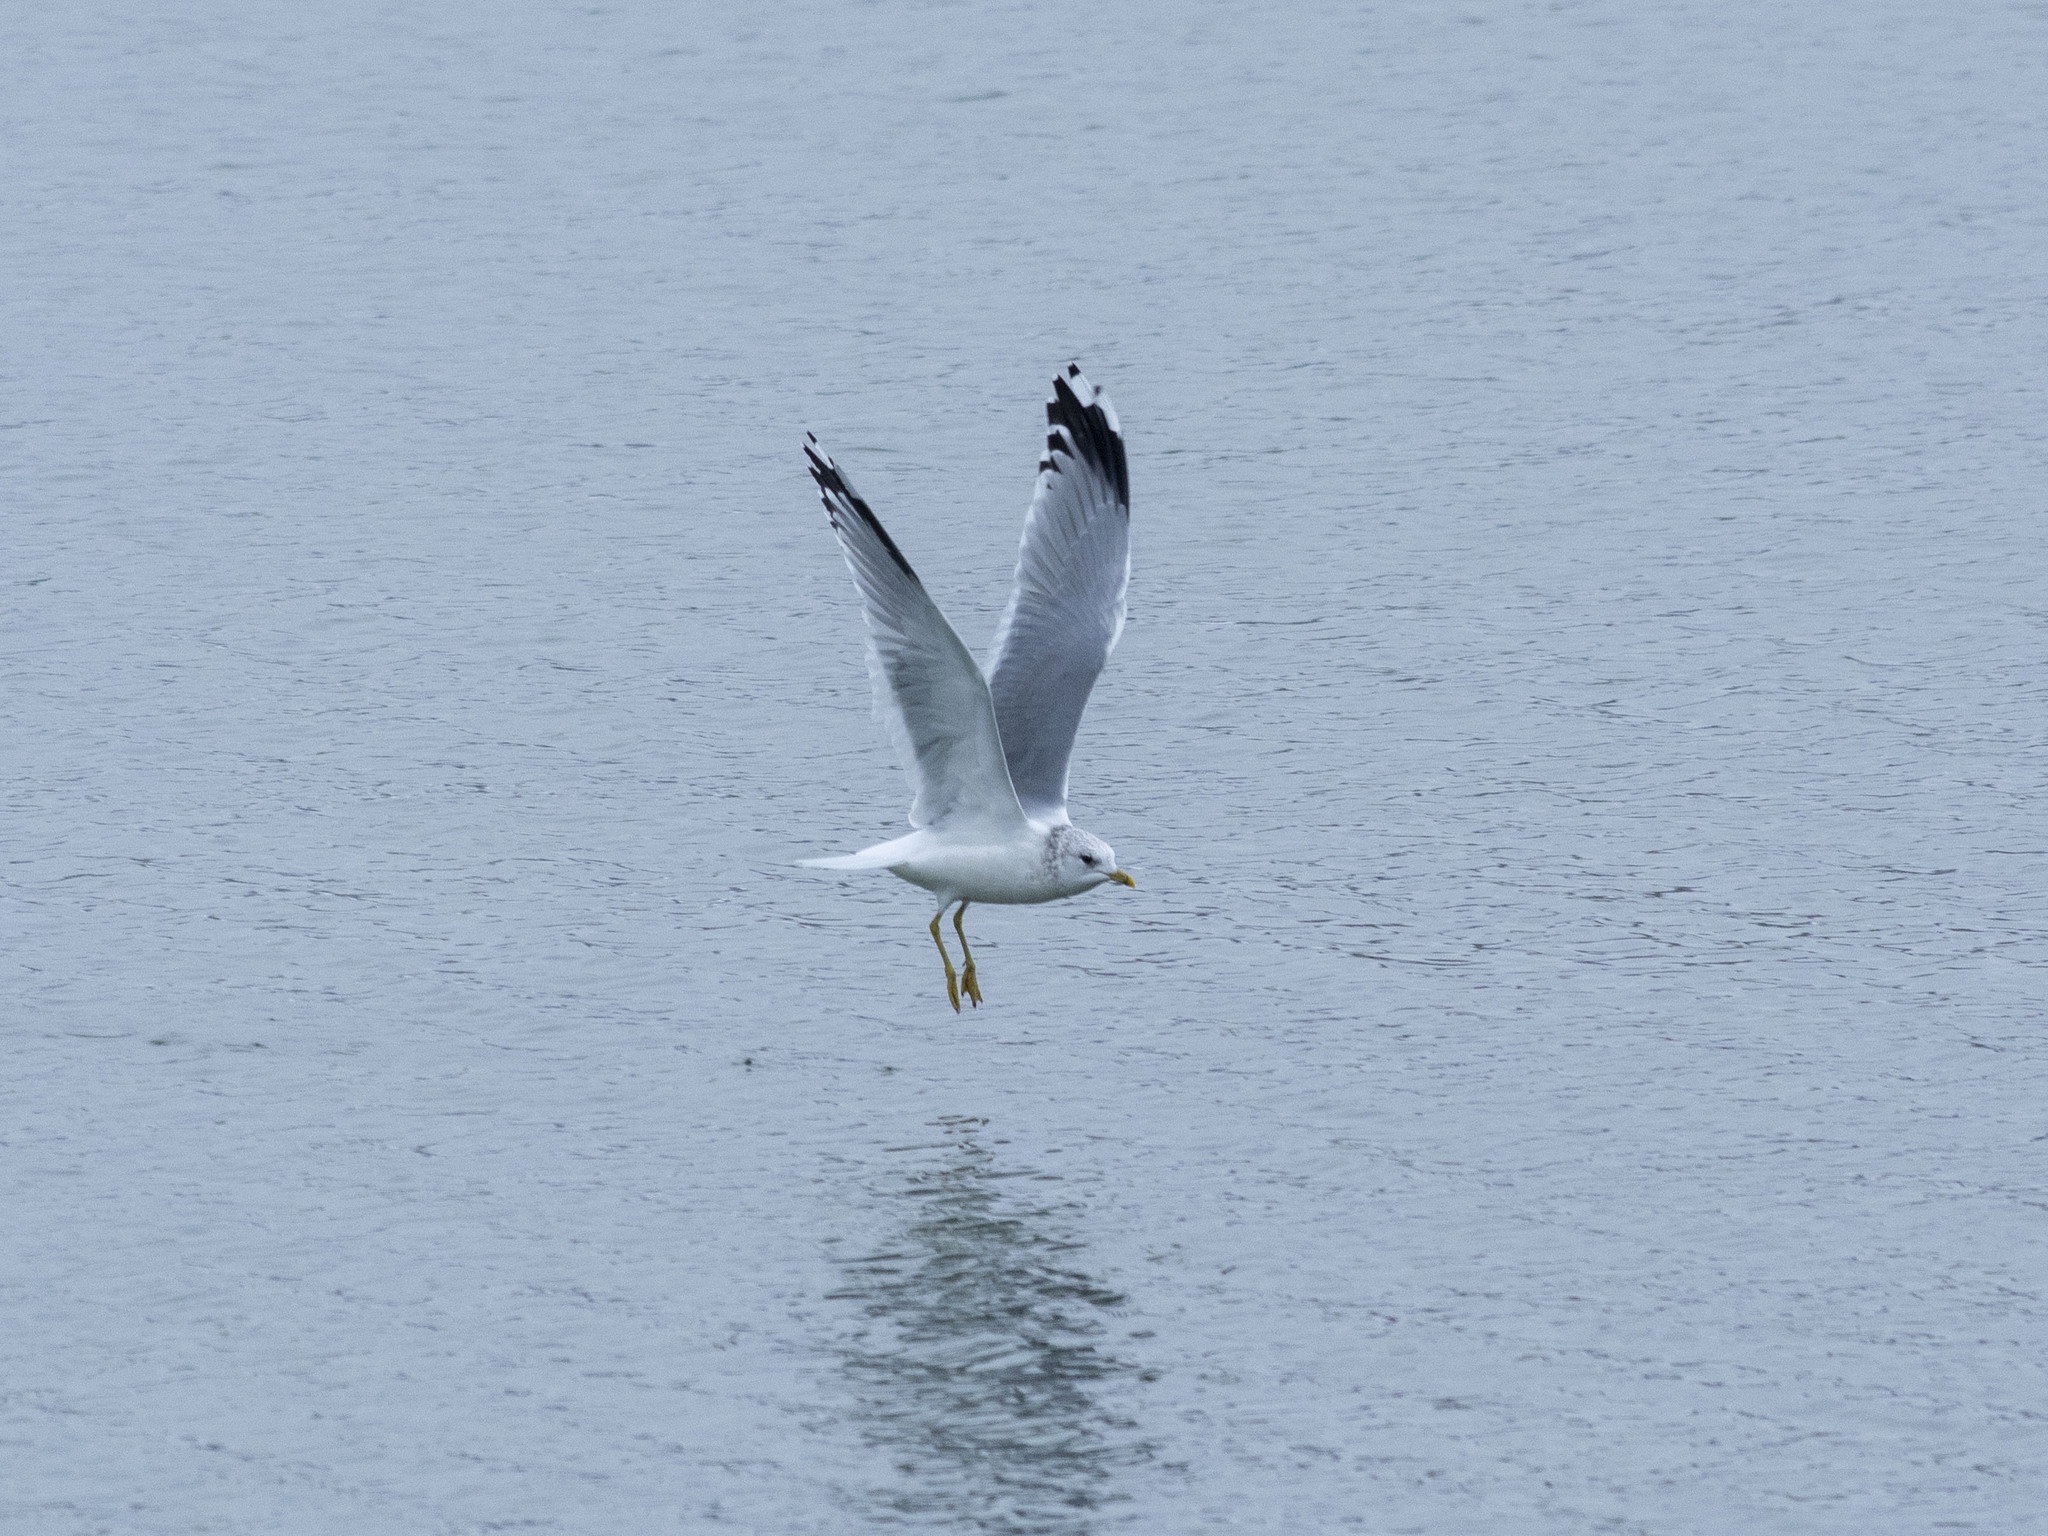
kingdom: Animalia
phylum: Chordata
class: Aves
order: Charadriiformes
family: Laridae
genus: Larus
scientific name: Larus canus
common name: Mew gull
